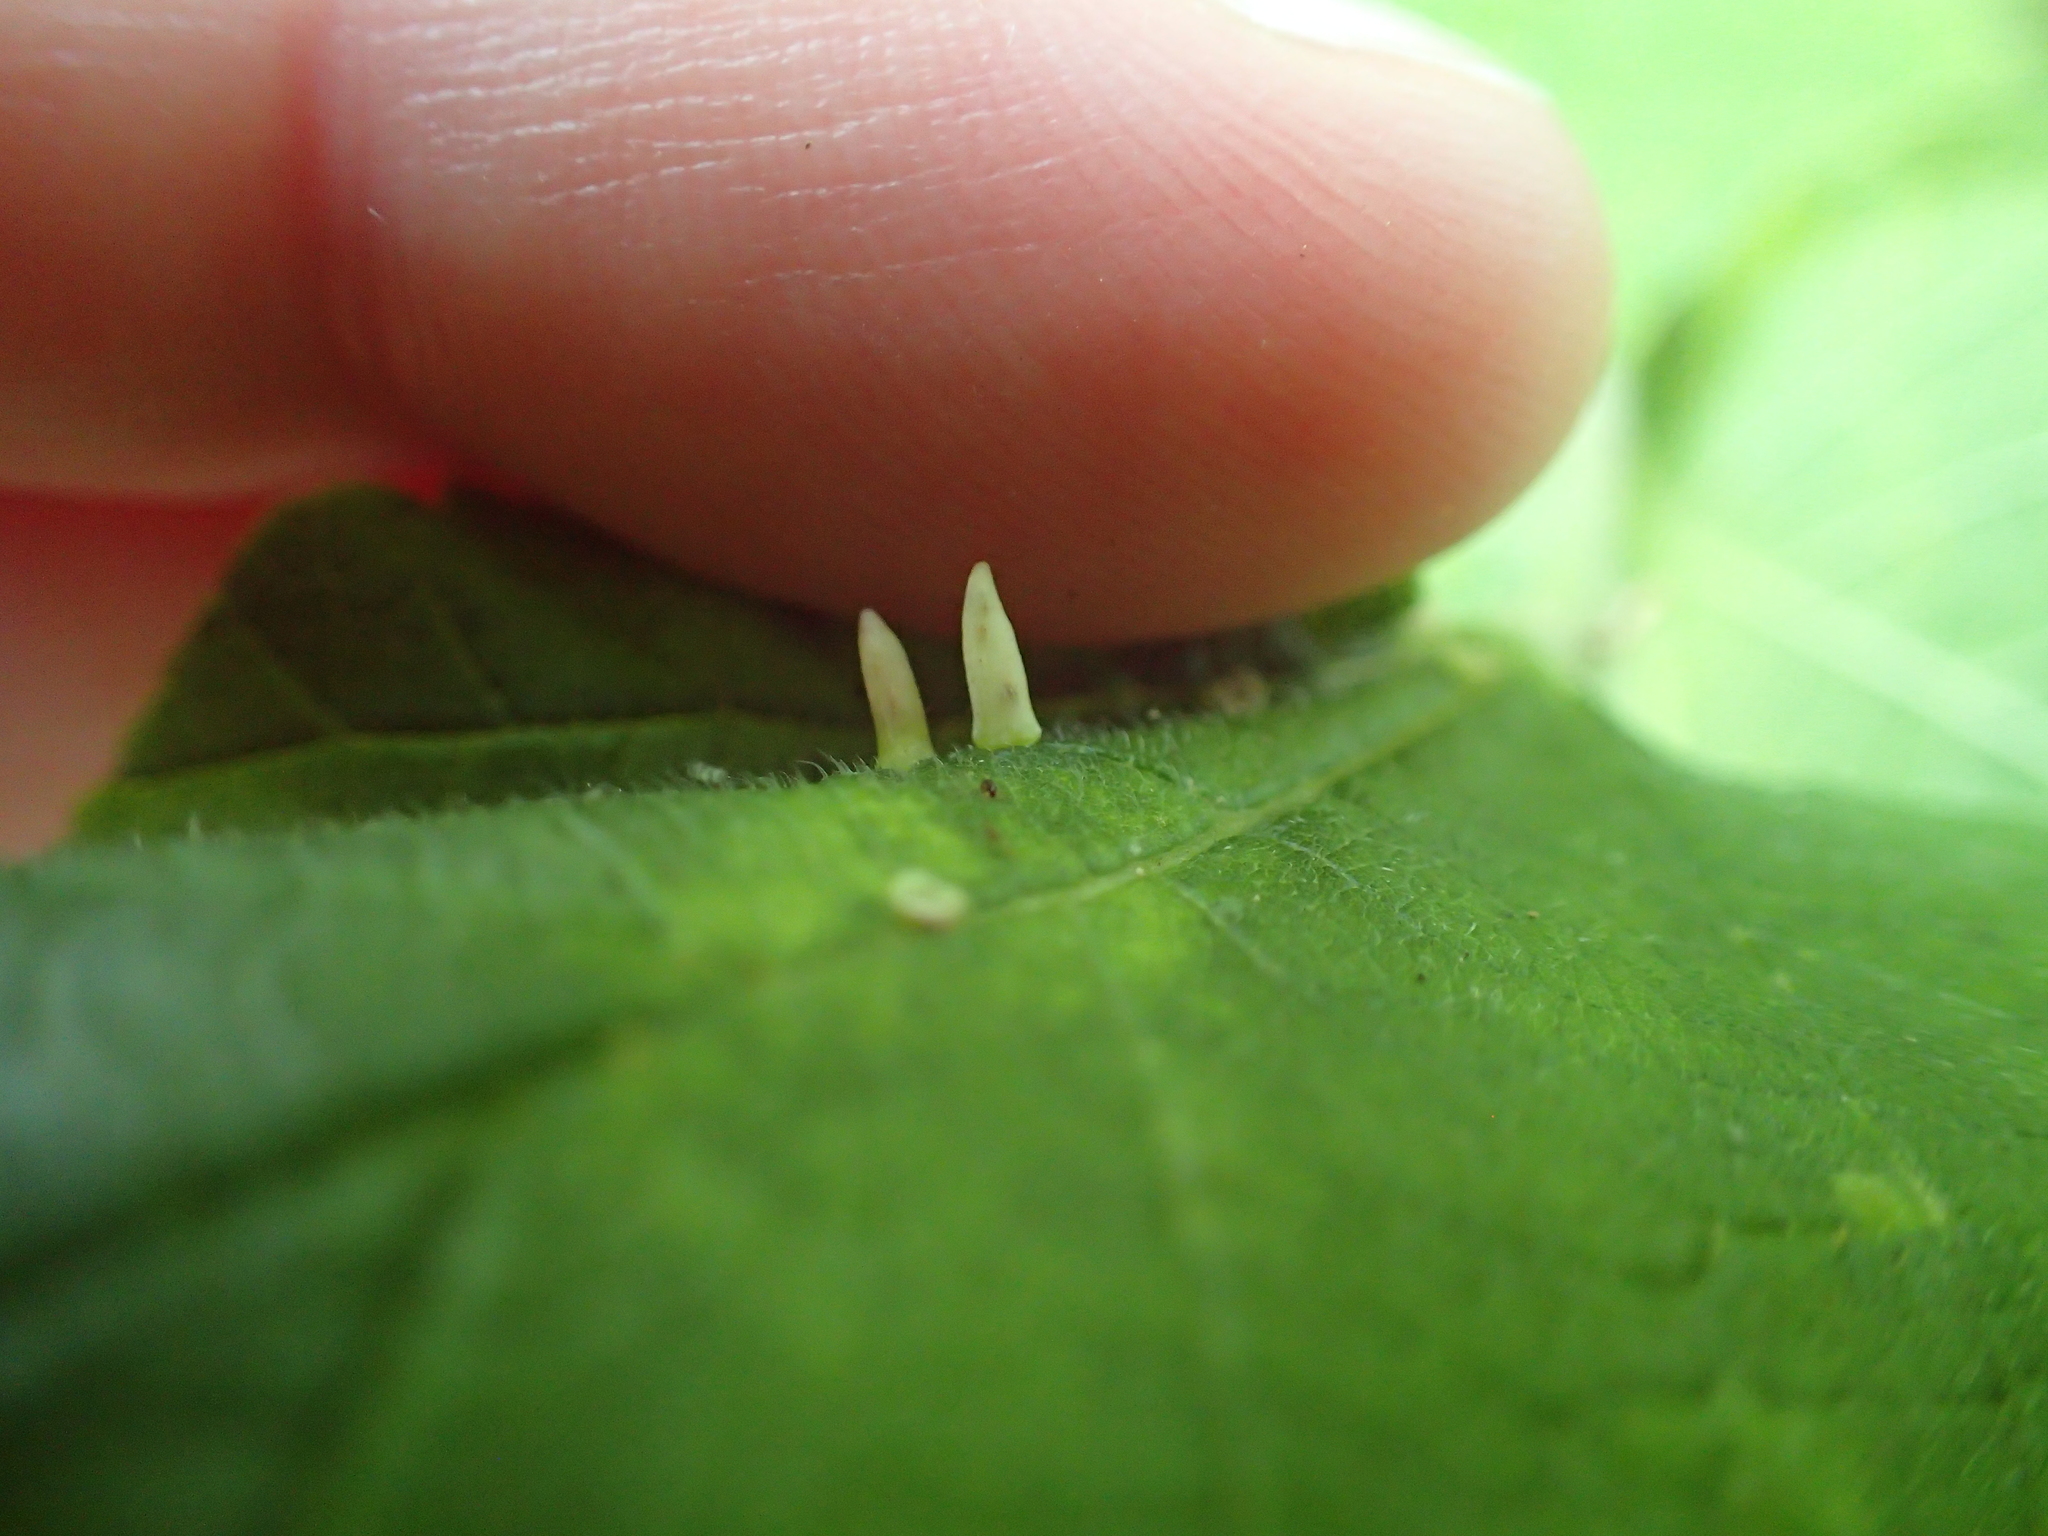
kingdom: Animalia
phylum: Arthropoda
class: Insecta
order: Diptera
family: Cecidomyiidae
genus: Celticecis
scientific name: Celticecis
